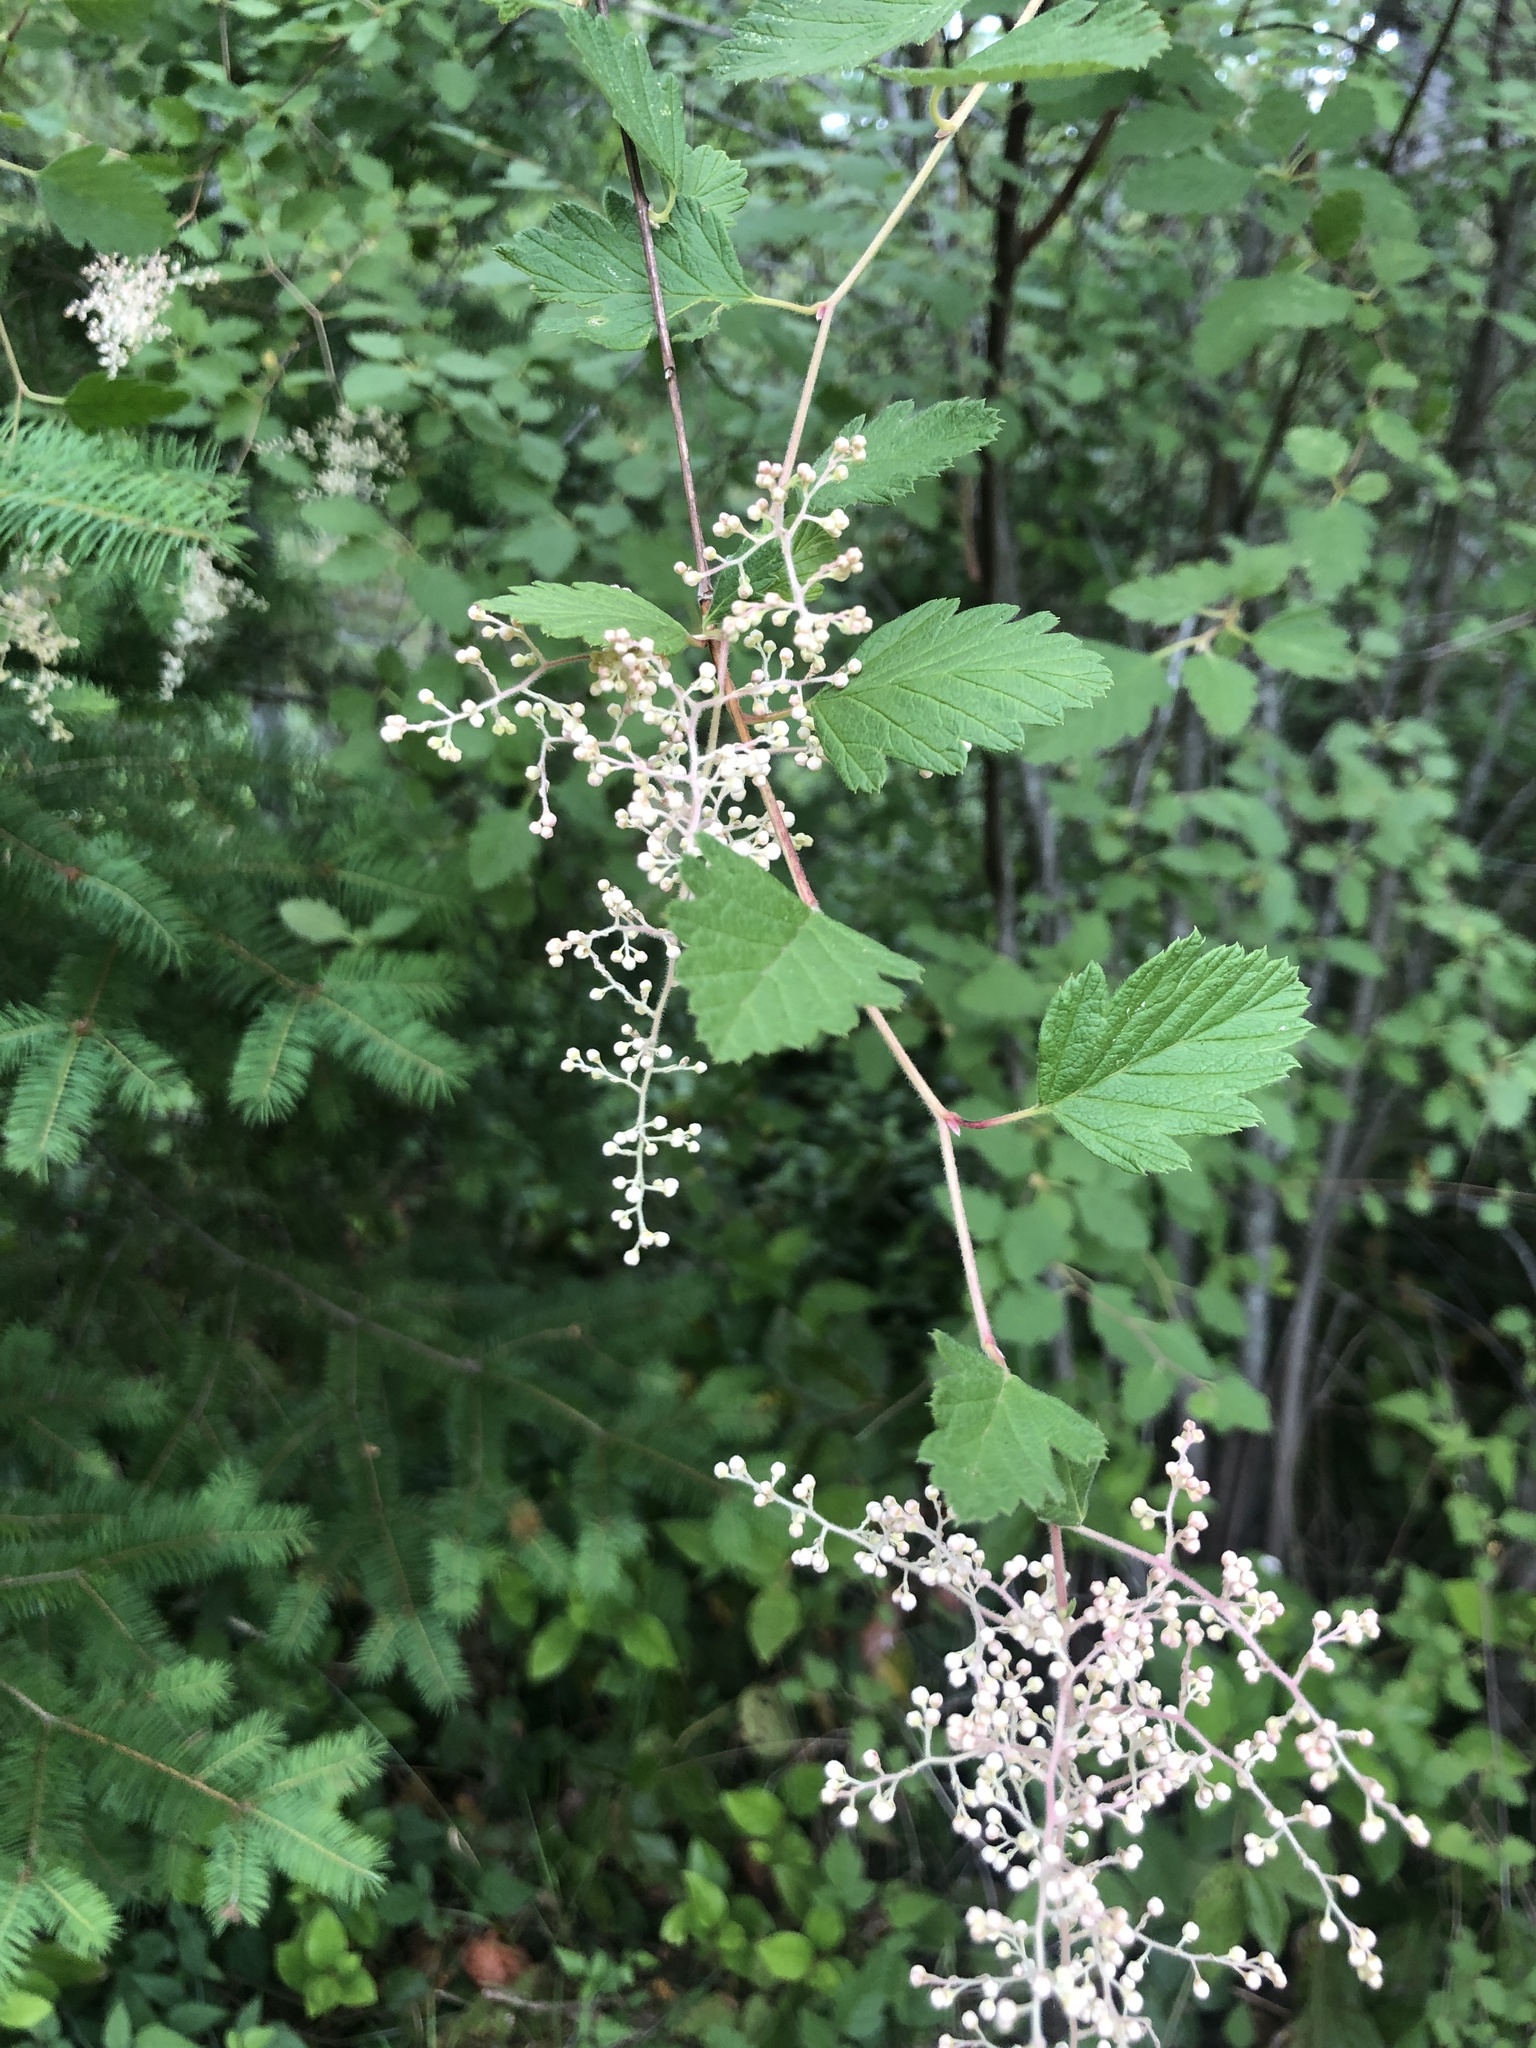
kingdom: Plantae
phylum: Tracheophyta
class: Magnoliopsida
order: Rosales
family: Rosaceae
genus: Holodiscus
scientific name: Holodiscus discolor
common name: Oceanspray
